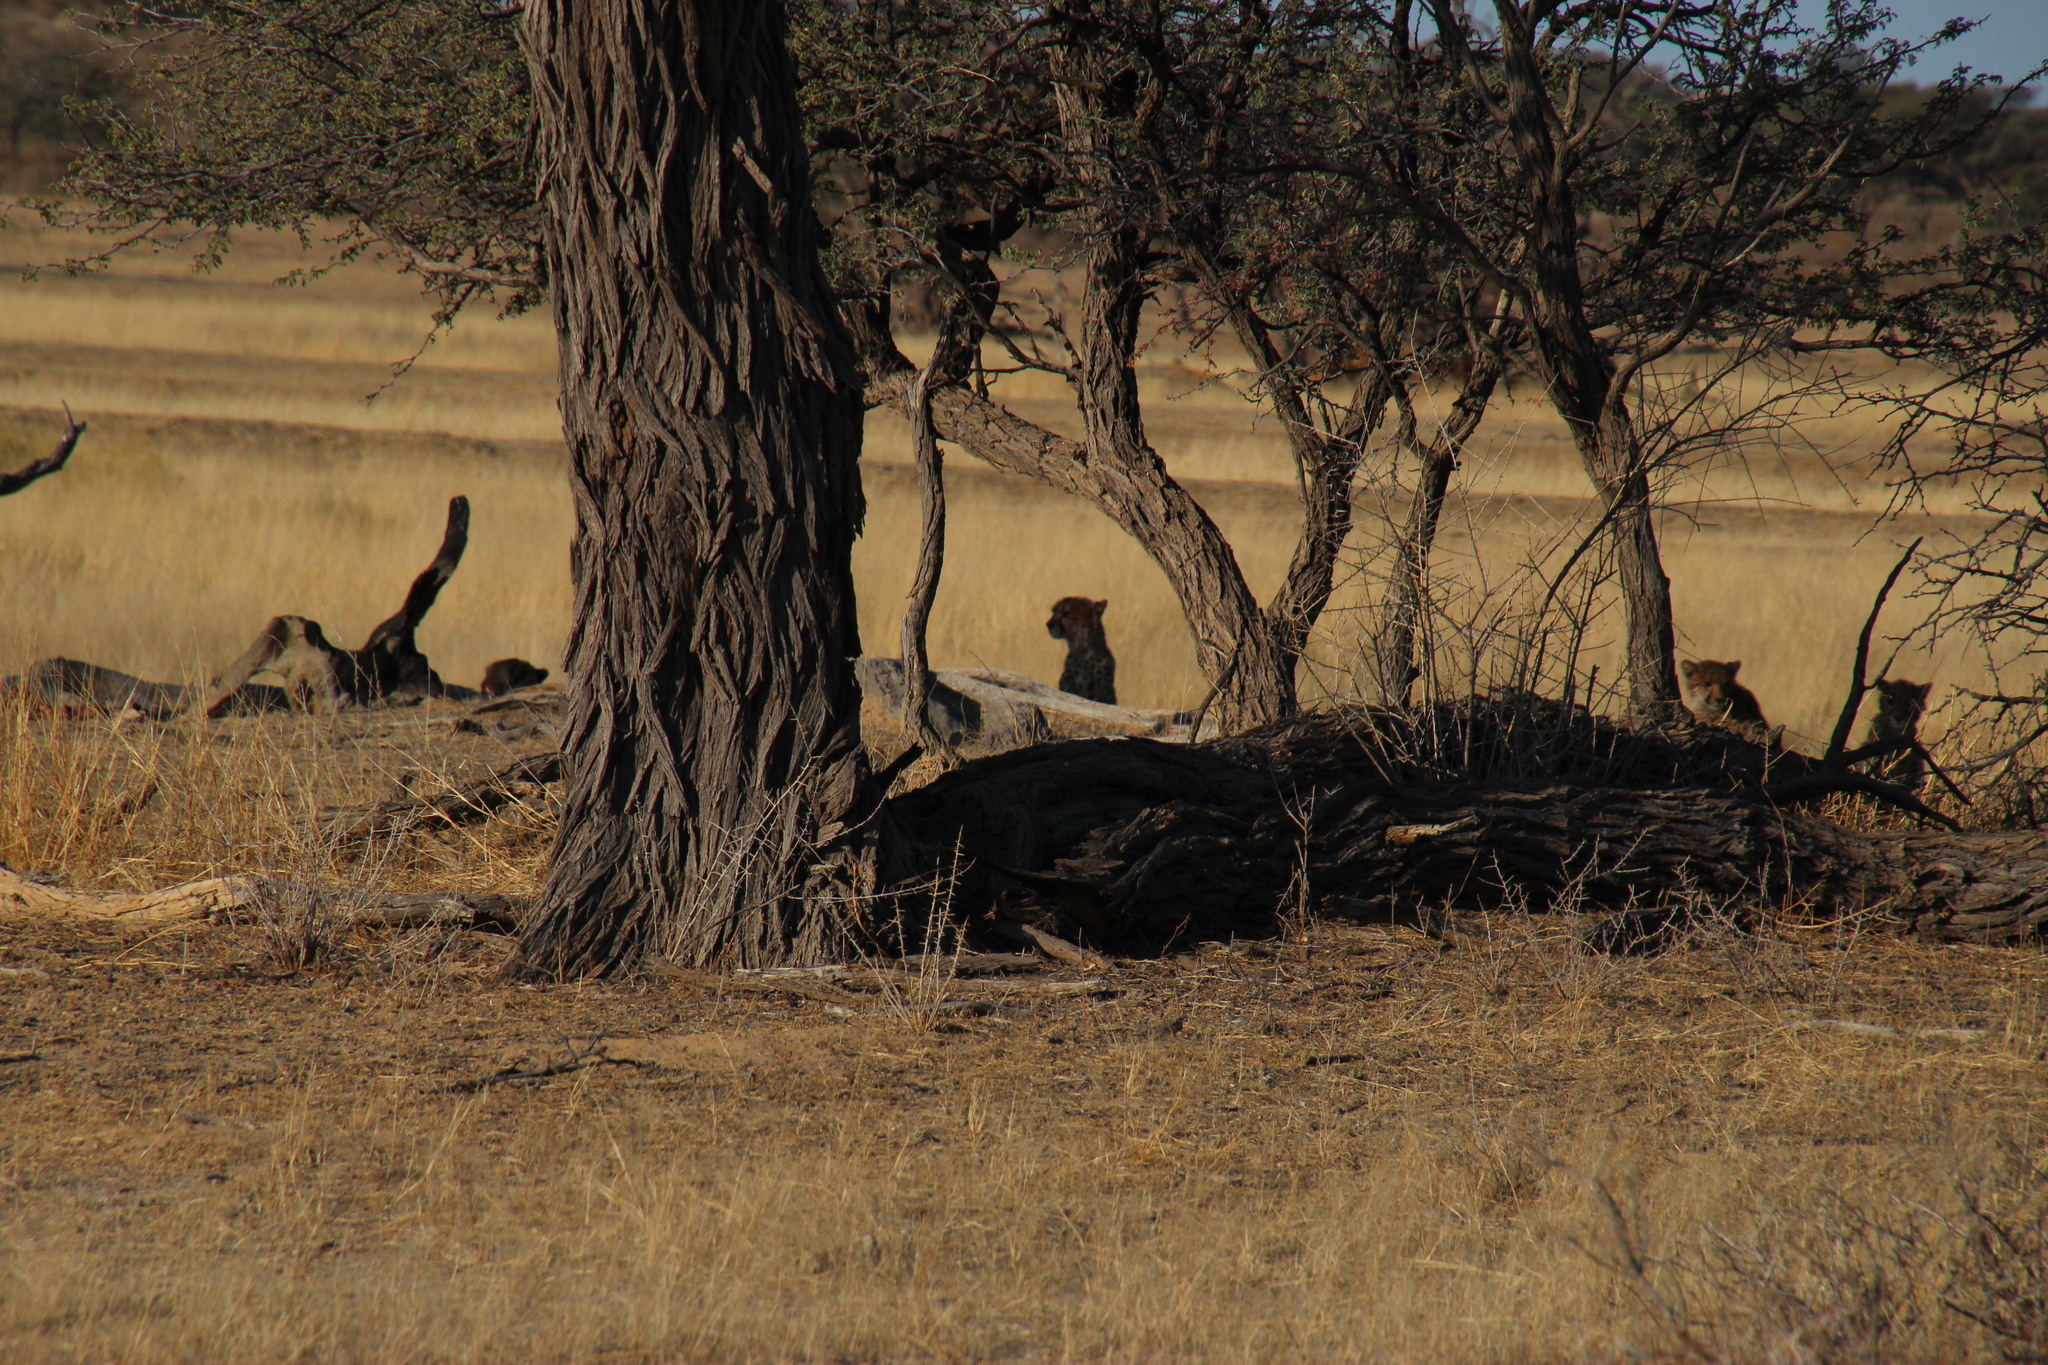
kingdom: Animalia
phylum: Chordata
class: Mammalia
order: Carnivora
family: Felidae
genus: Acinonyx
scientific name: Acinonyx jubatus
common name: Cheetah
